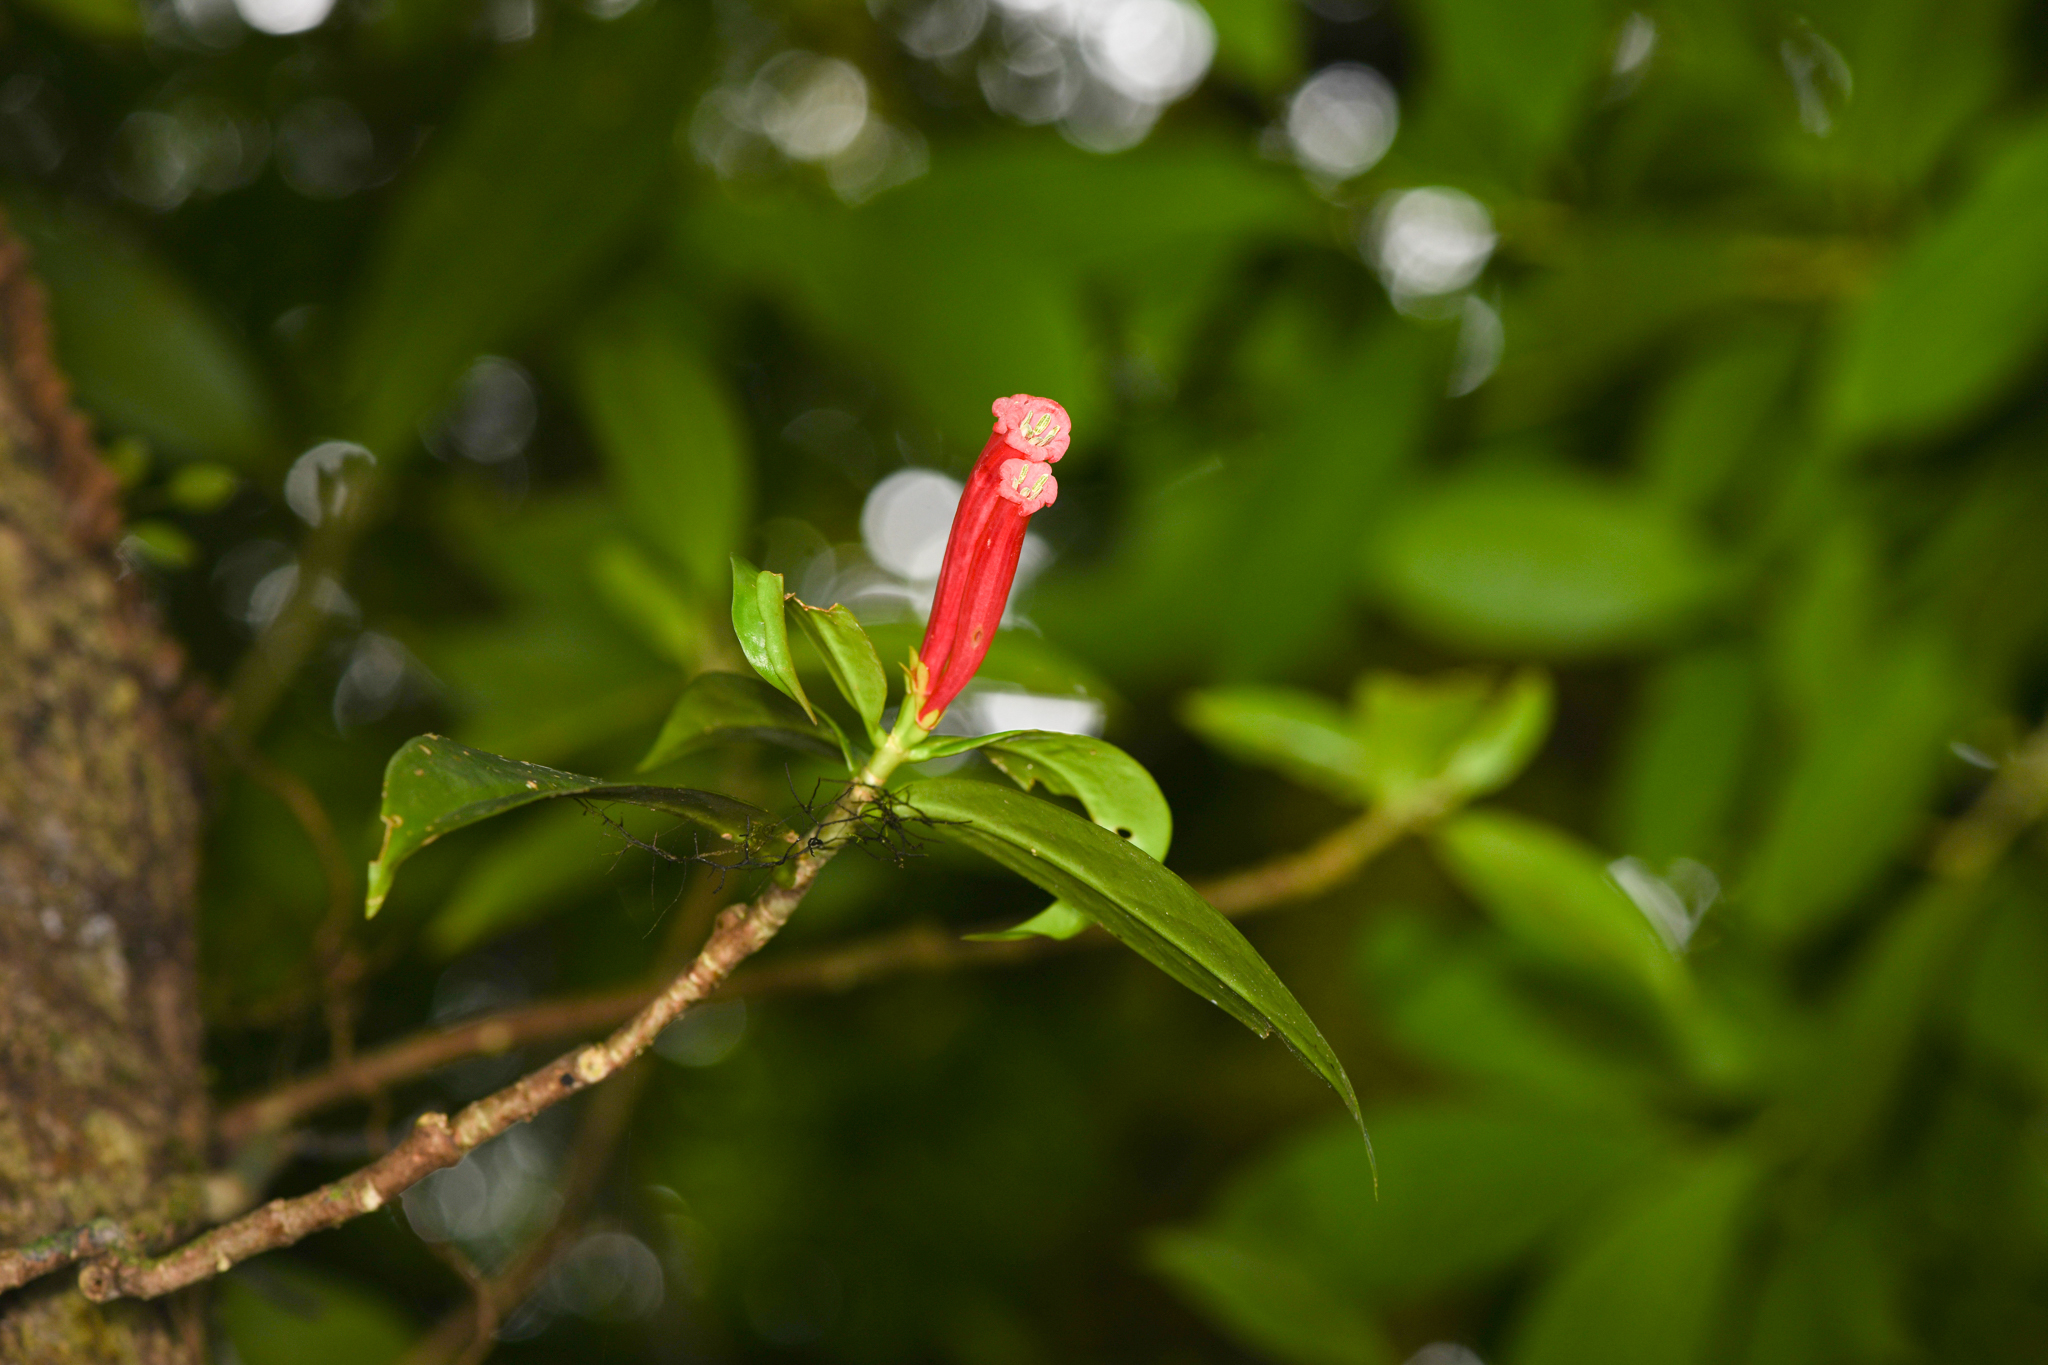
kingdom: Plantae
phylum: Tracheophyta
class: Magnoliopsida
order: Gentianales
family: Rubiaceae
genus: Hillia
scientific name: Hillia triflora
